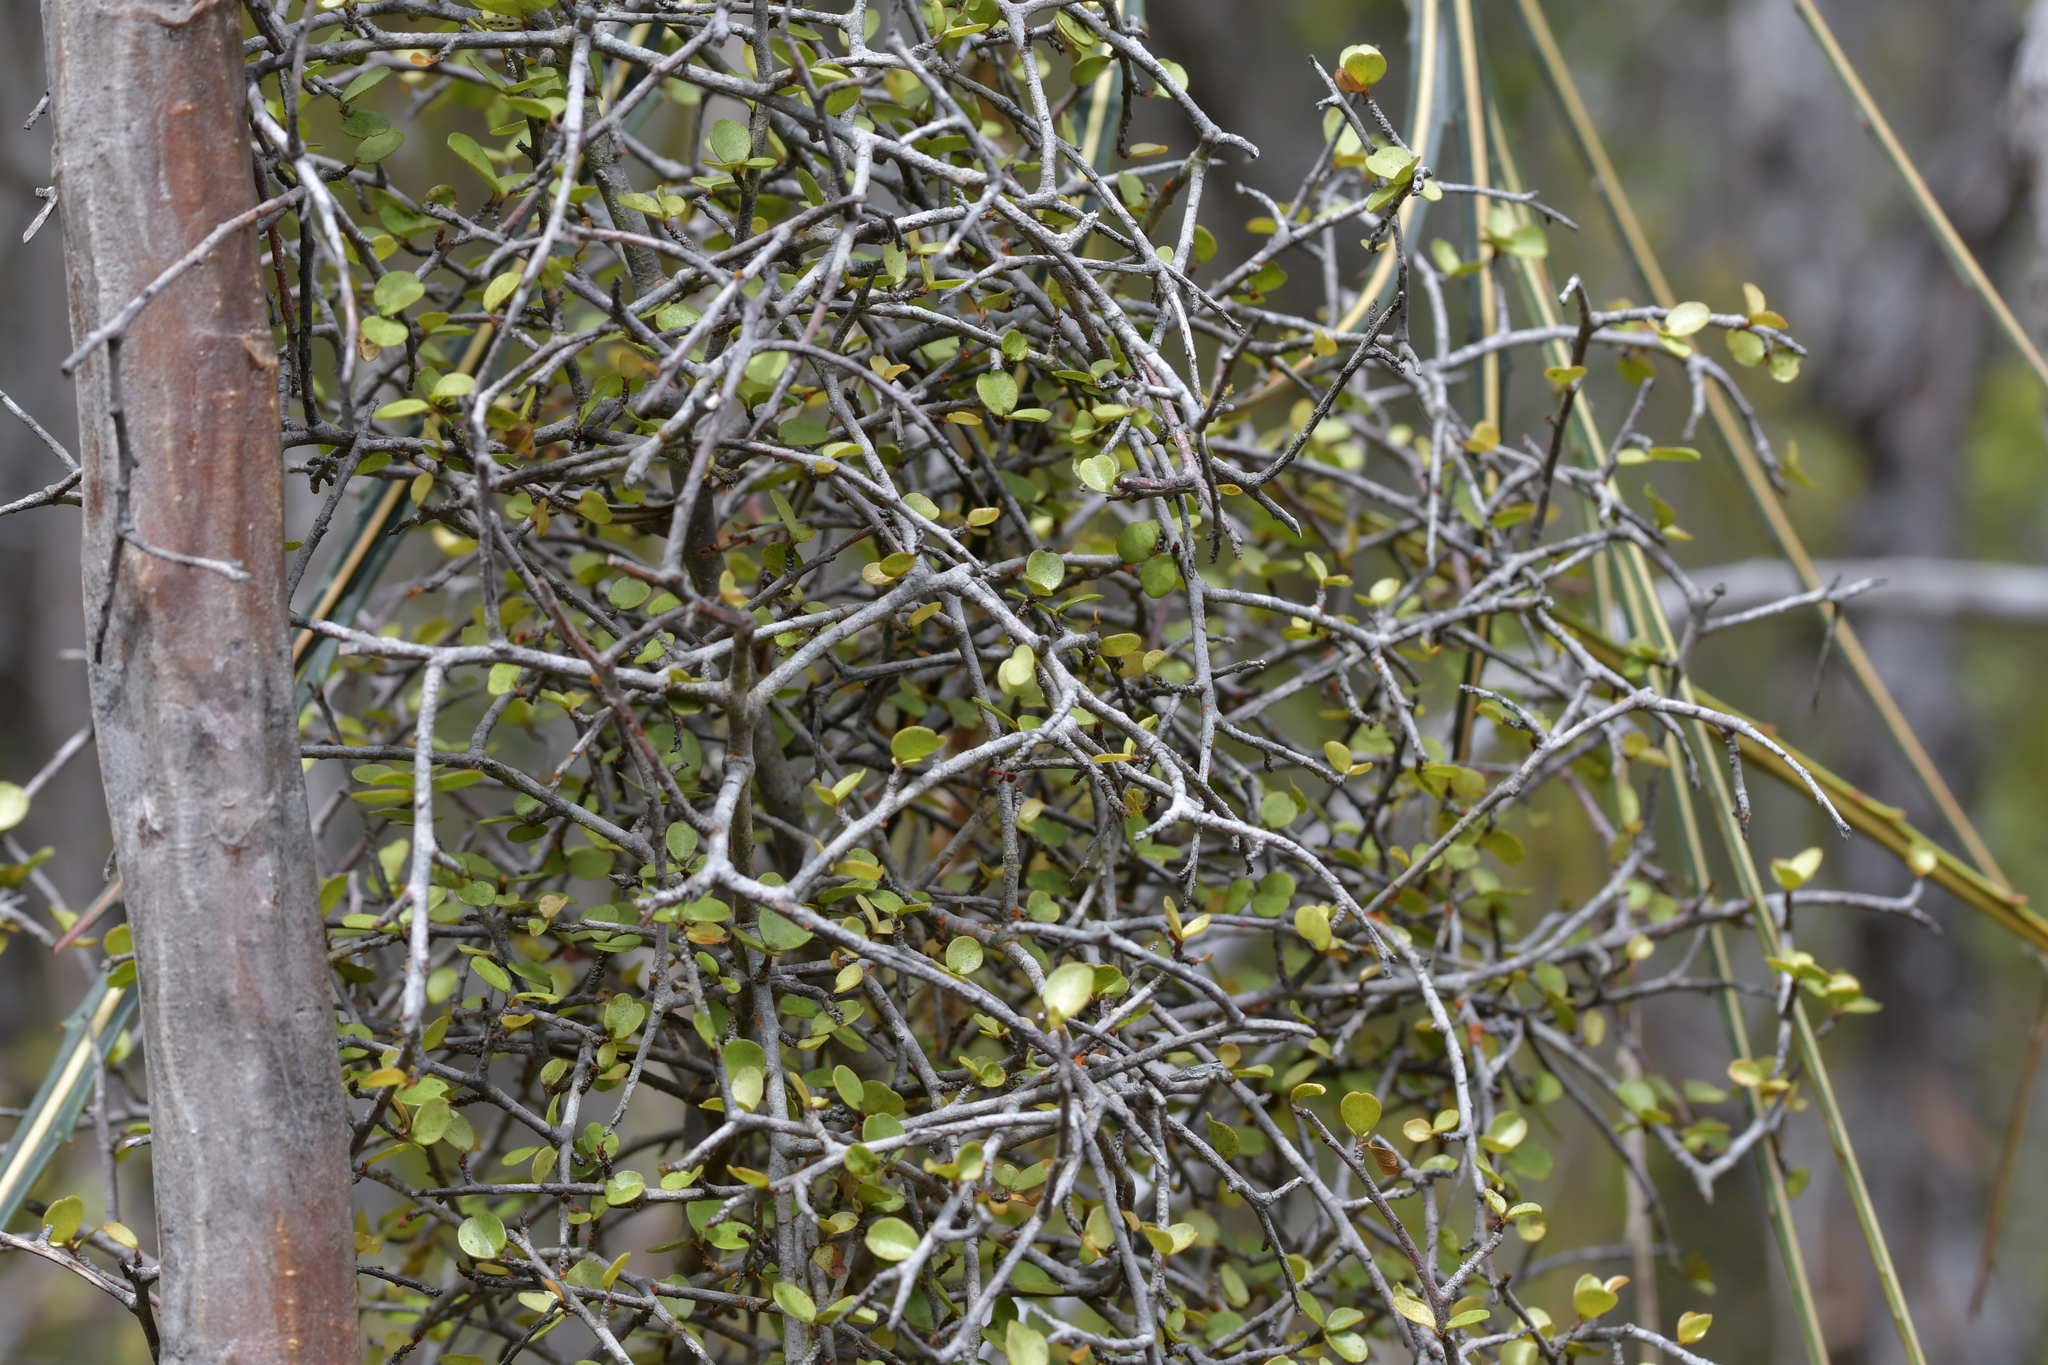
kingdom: Plantae
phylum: Tracheophyta
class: Magnoliopsida
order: Ericales
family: Primulaceae
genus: Myrsine
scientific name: Myrsine divaricata
